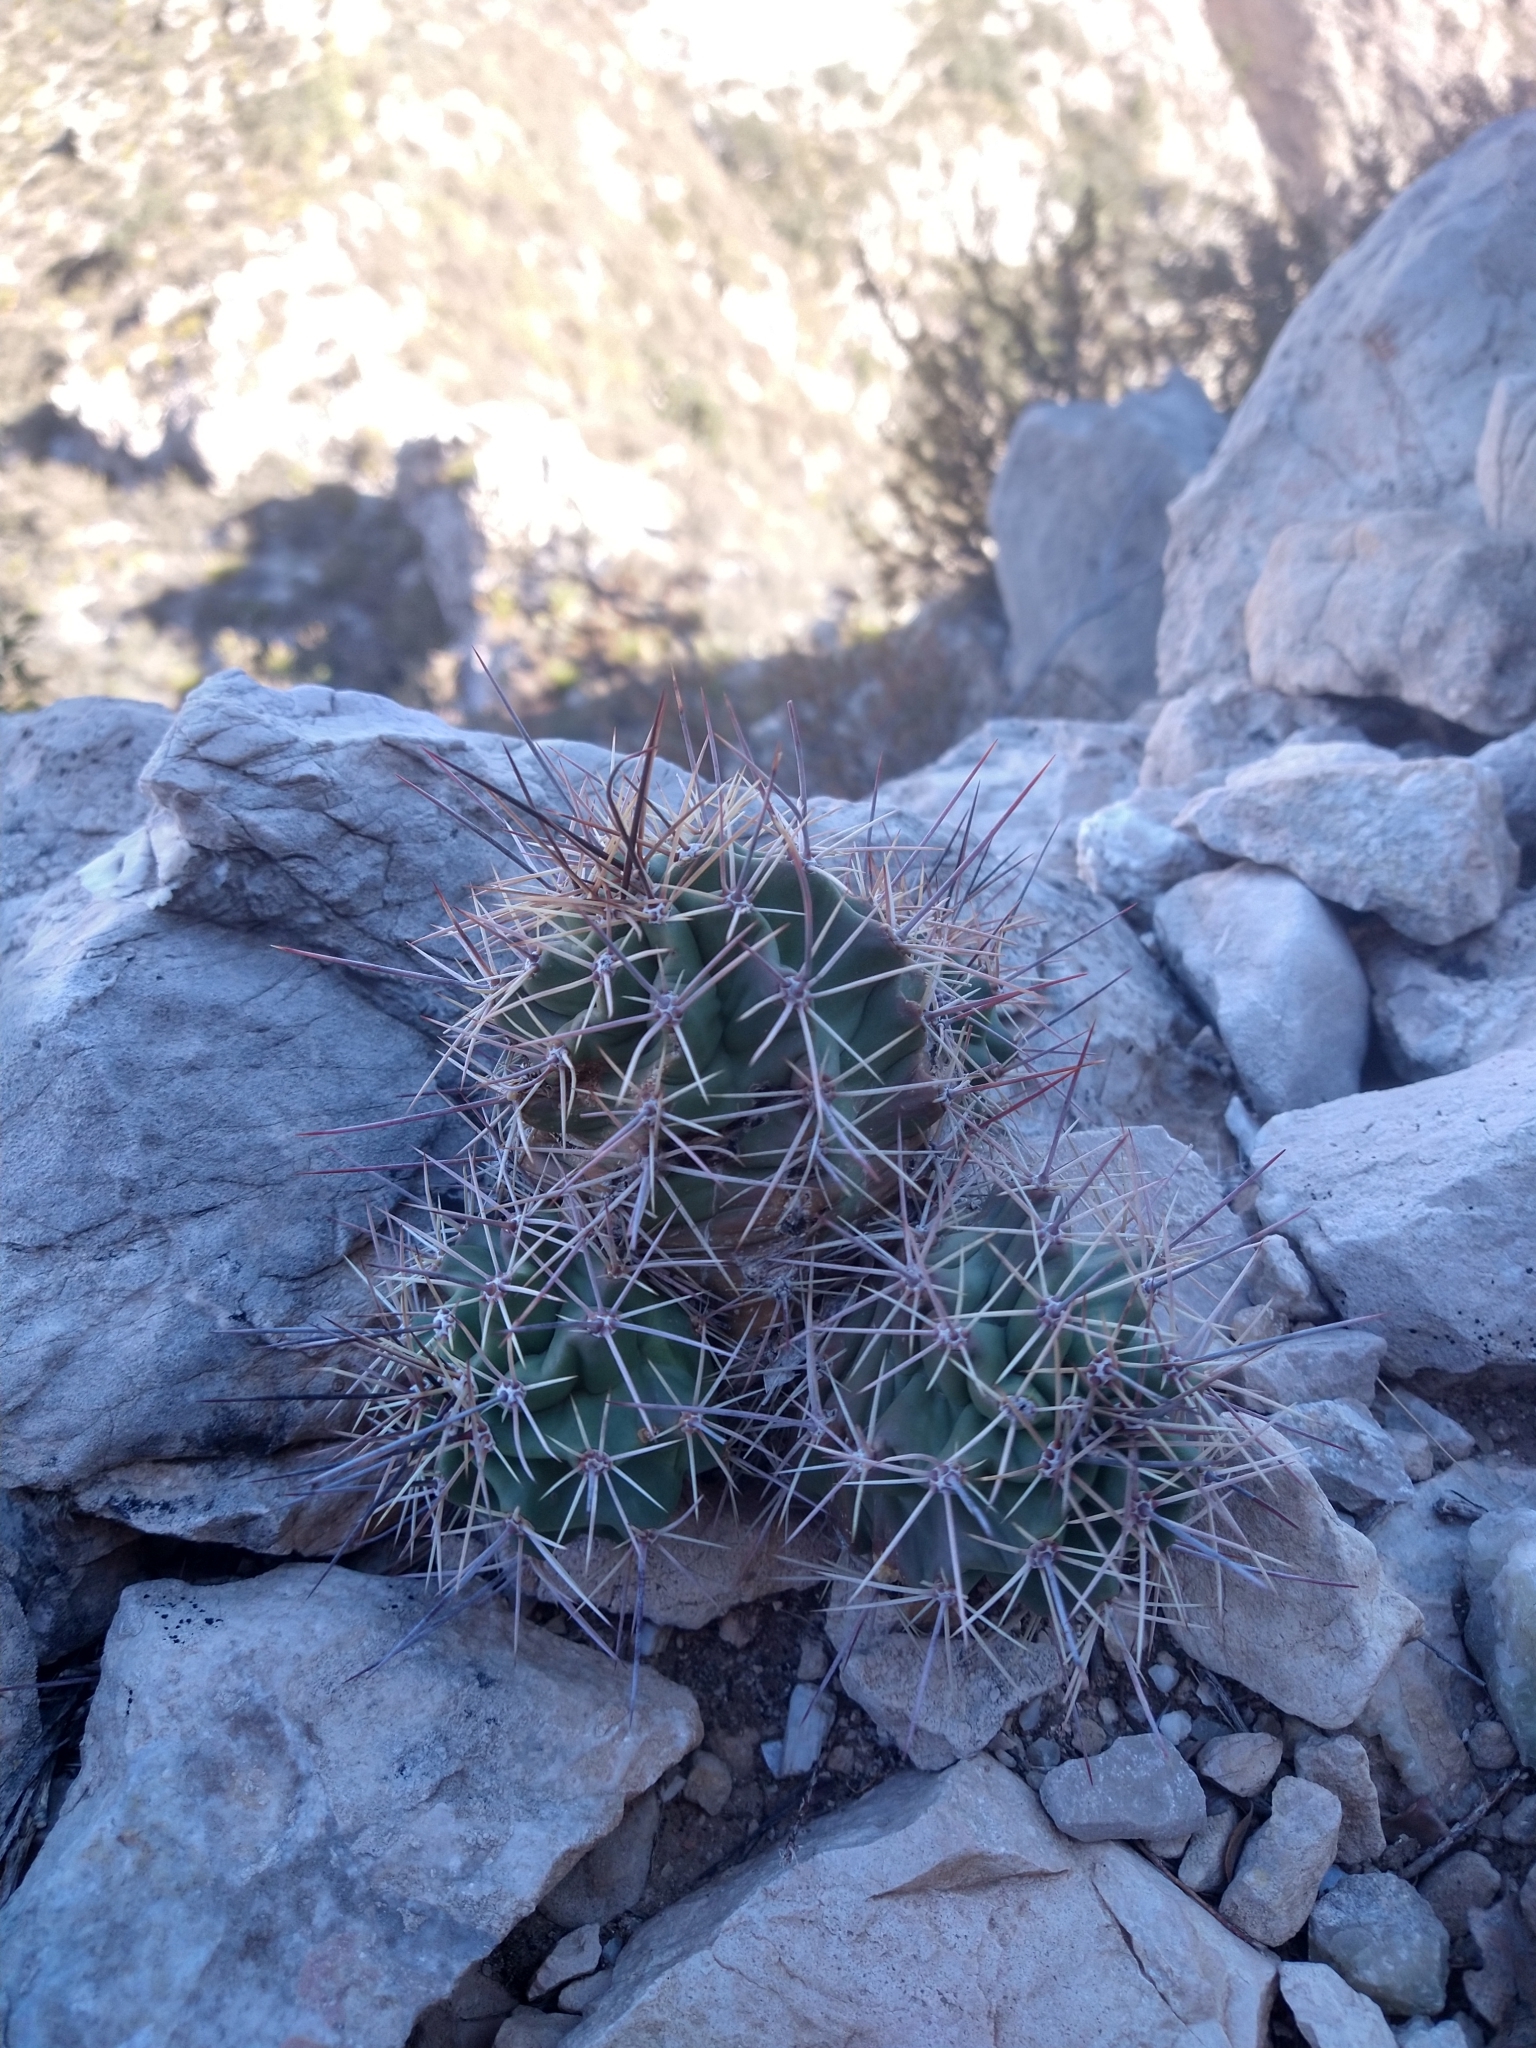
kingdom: Plantae
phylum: Tracheophyta
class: Magnoliopsida
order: Caryophyllales
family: Cactaceae
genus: Echinocereus
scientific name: Echinocereus coccineus
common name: Scarlet hedgehog cactus
